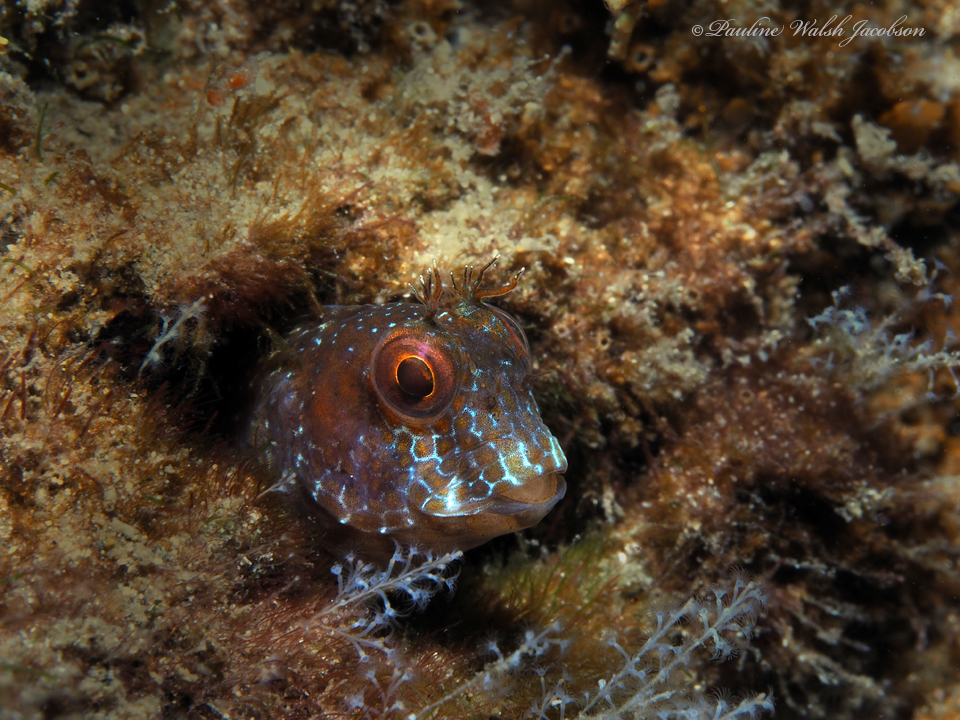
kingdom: Animalia
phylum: Chordata
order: Perciformes
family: Blenniidae
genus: Parablennius
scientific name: Parablennius marmoreus
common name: Seaweed blenny
